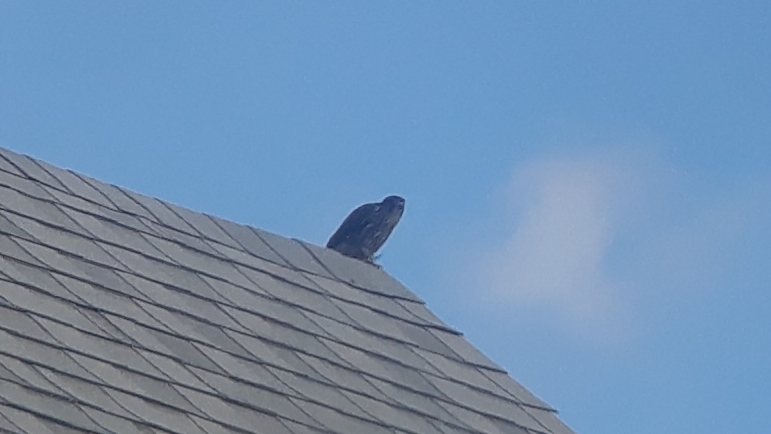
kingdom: Animalia
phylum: Chordata
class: Aves
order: Falconiformes
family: Falconidae
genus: Falco
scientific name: Falco columbarius
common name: Merlin
